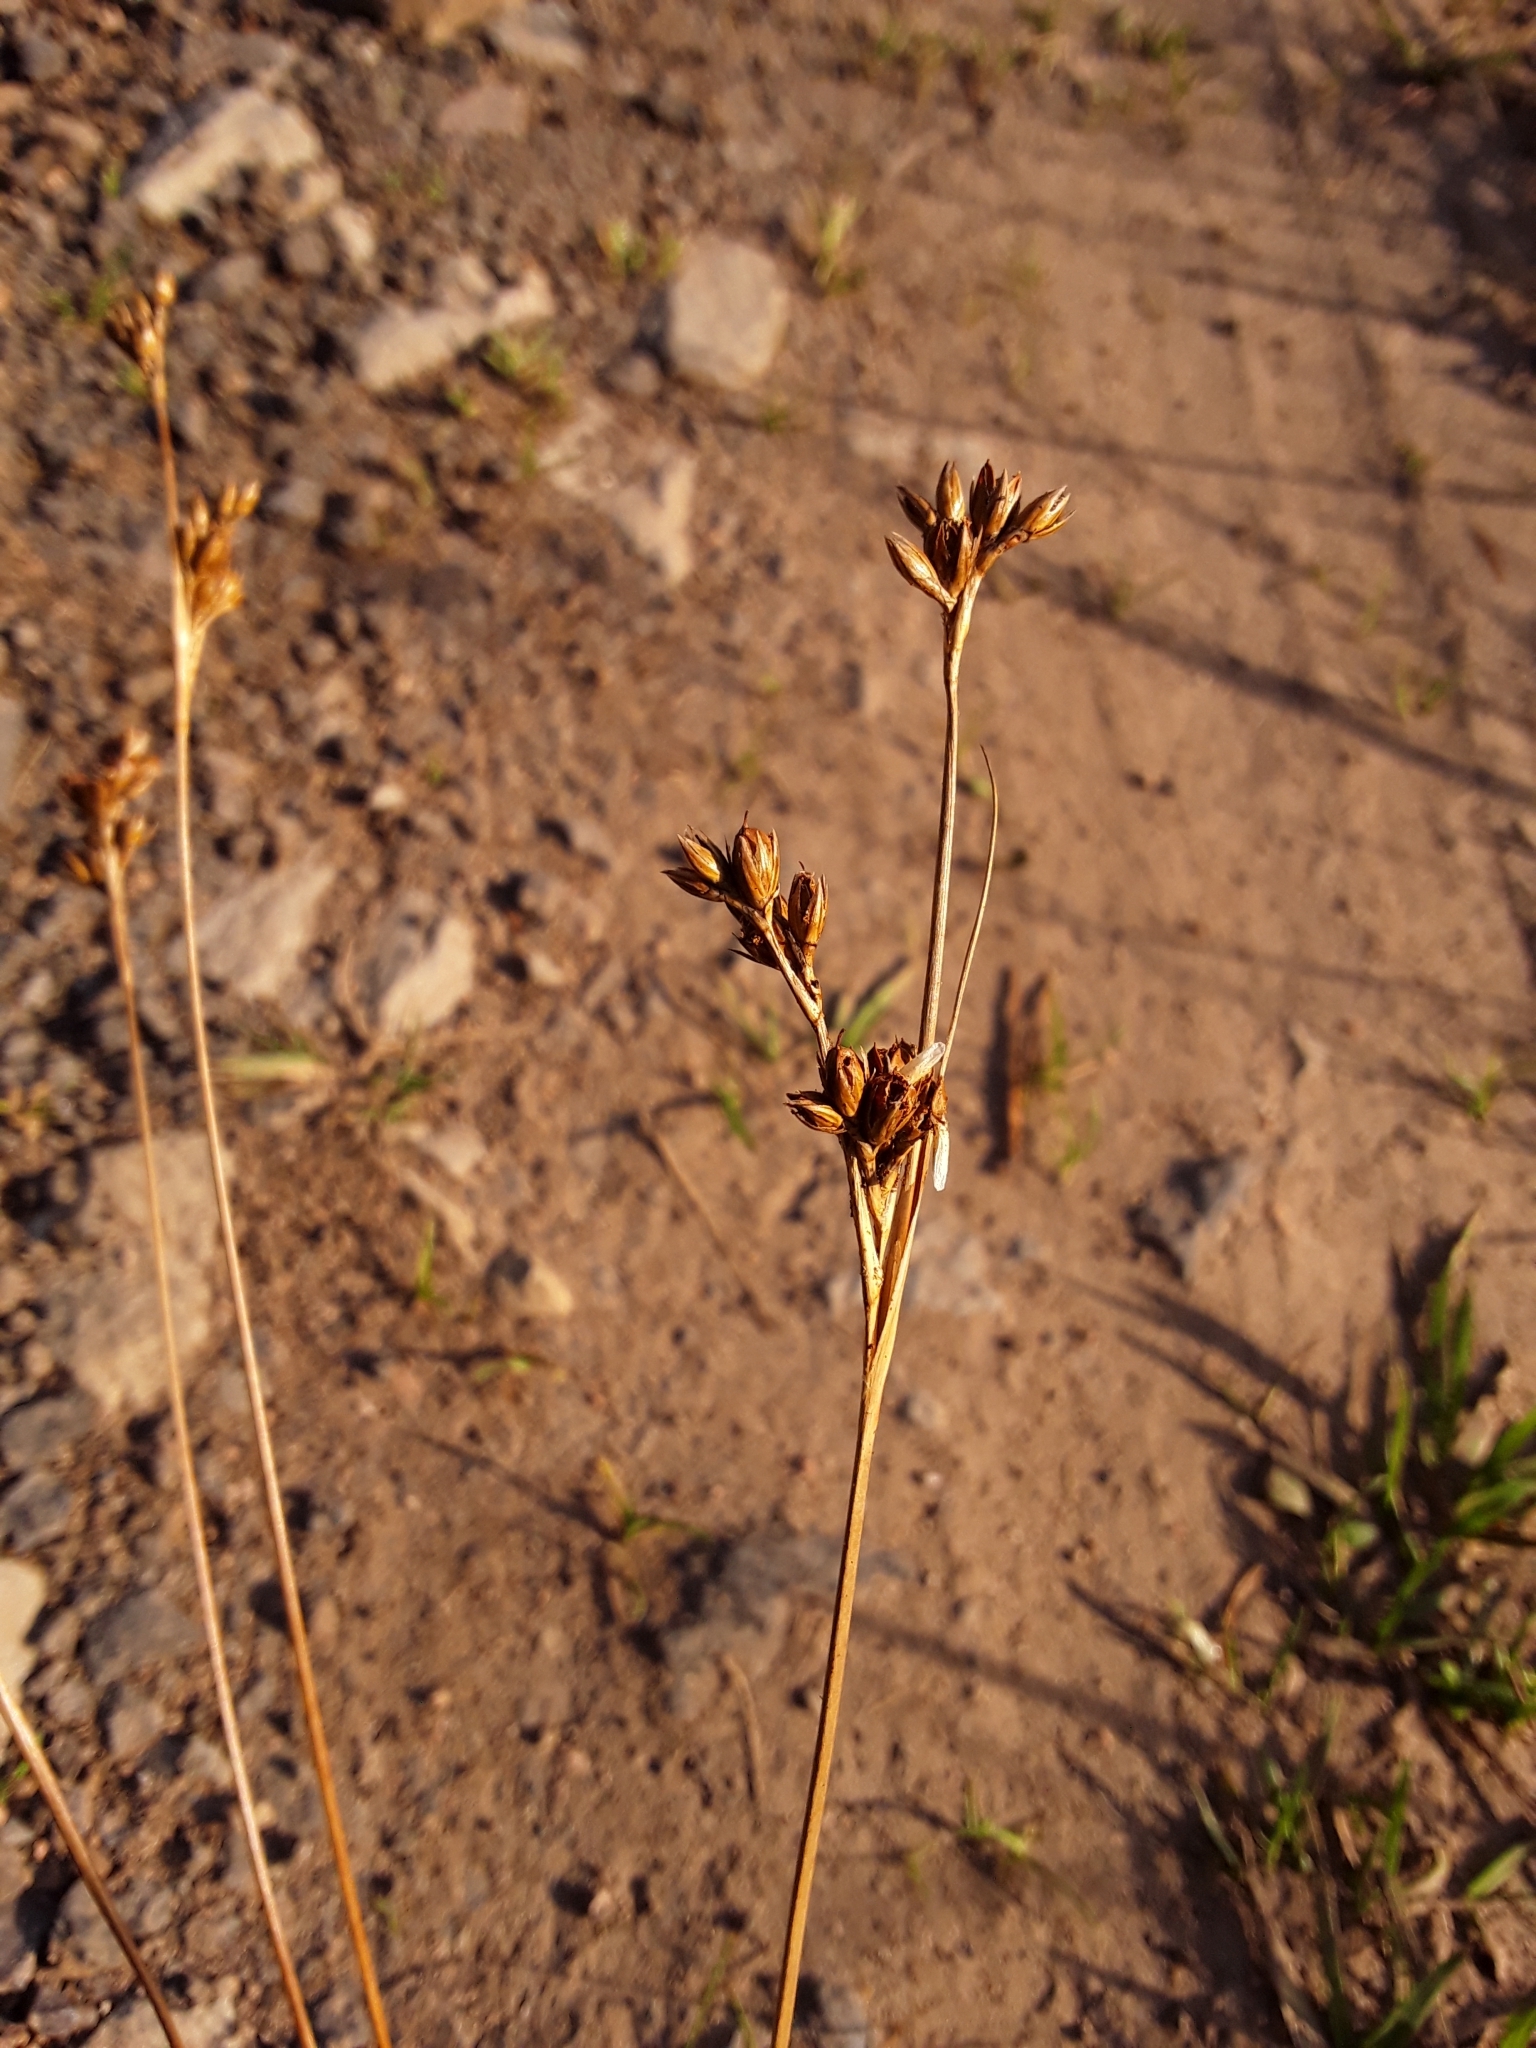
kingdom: Plantae
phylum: Tracheophyta
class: Liliopsida
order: Poales
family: Juncaceae
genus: Juncus
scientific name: Juncus squarrosus
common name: Heath rush
